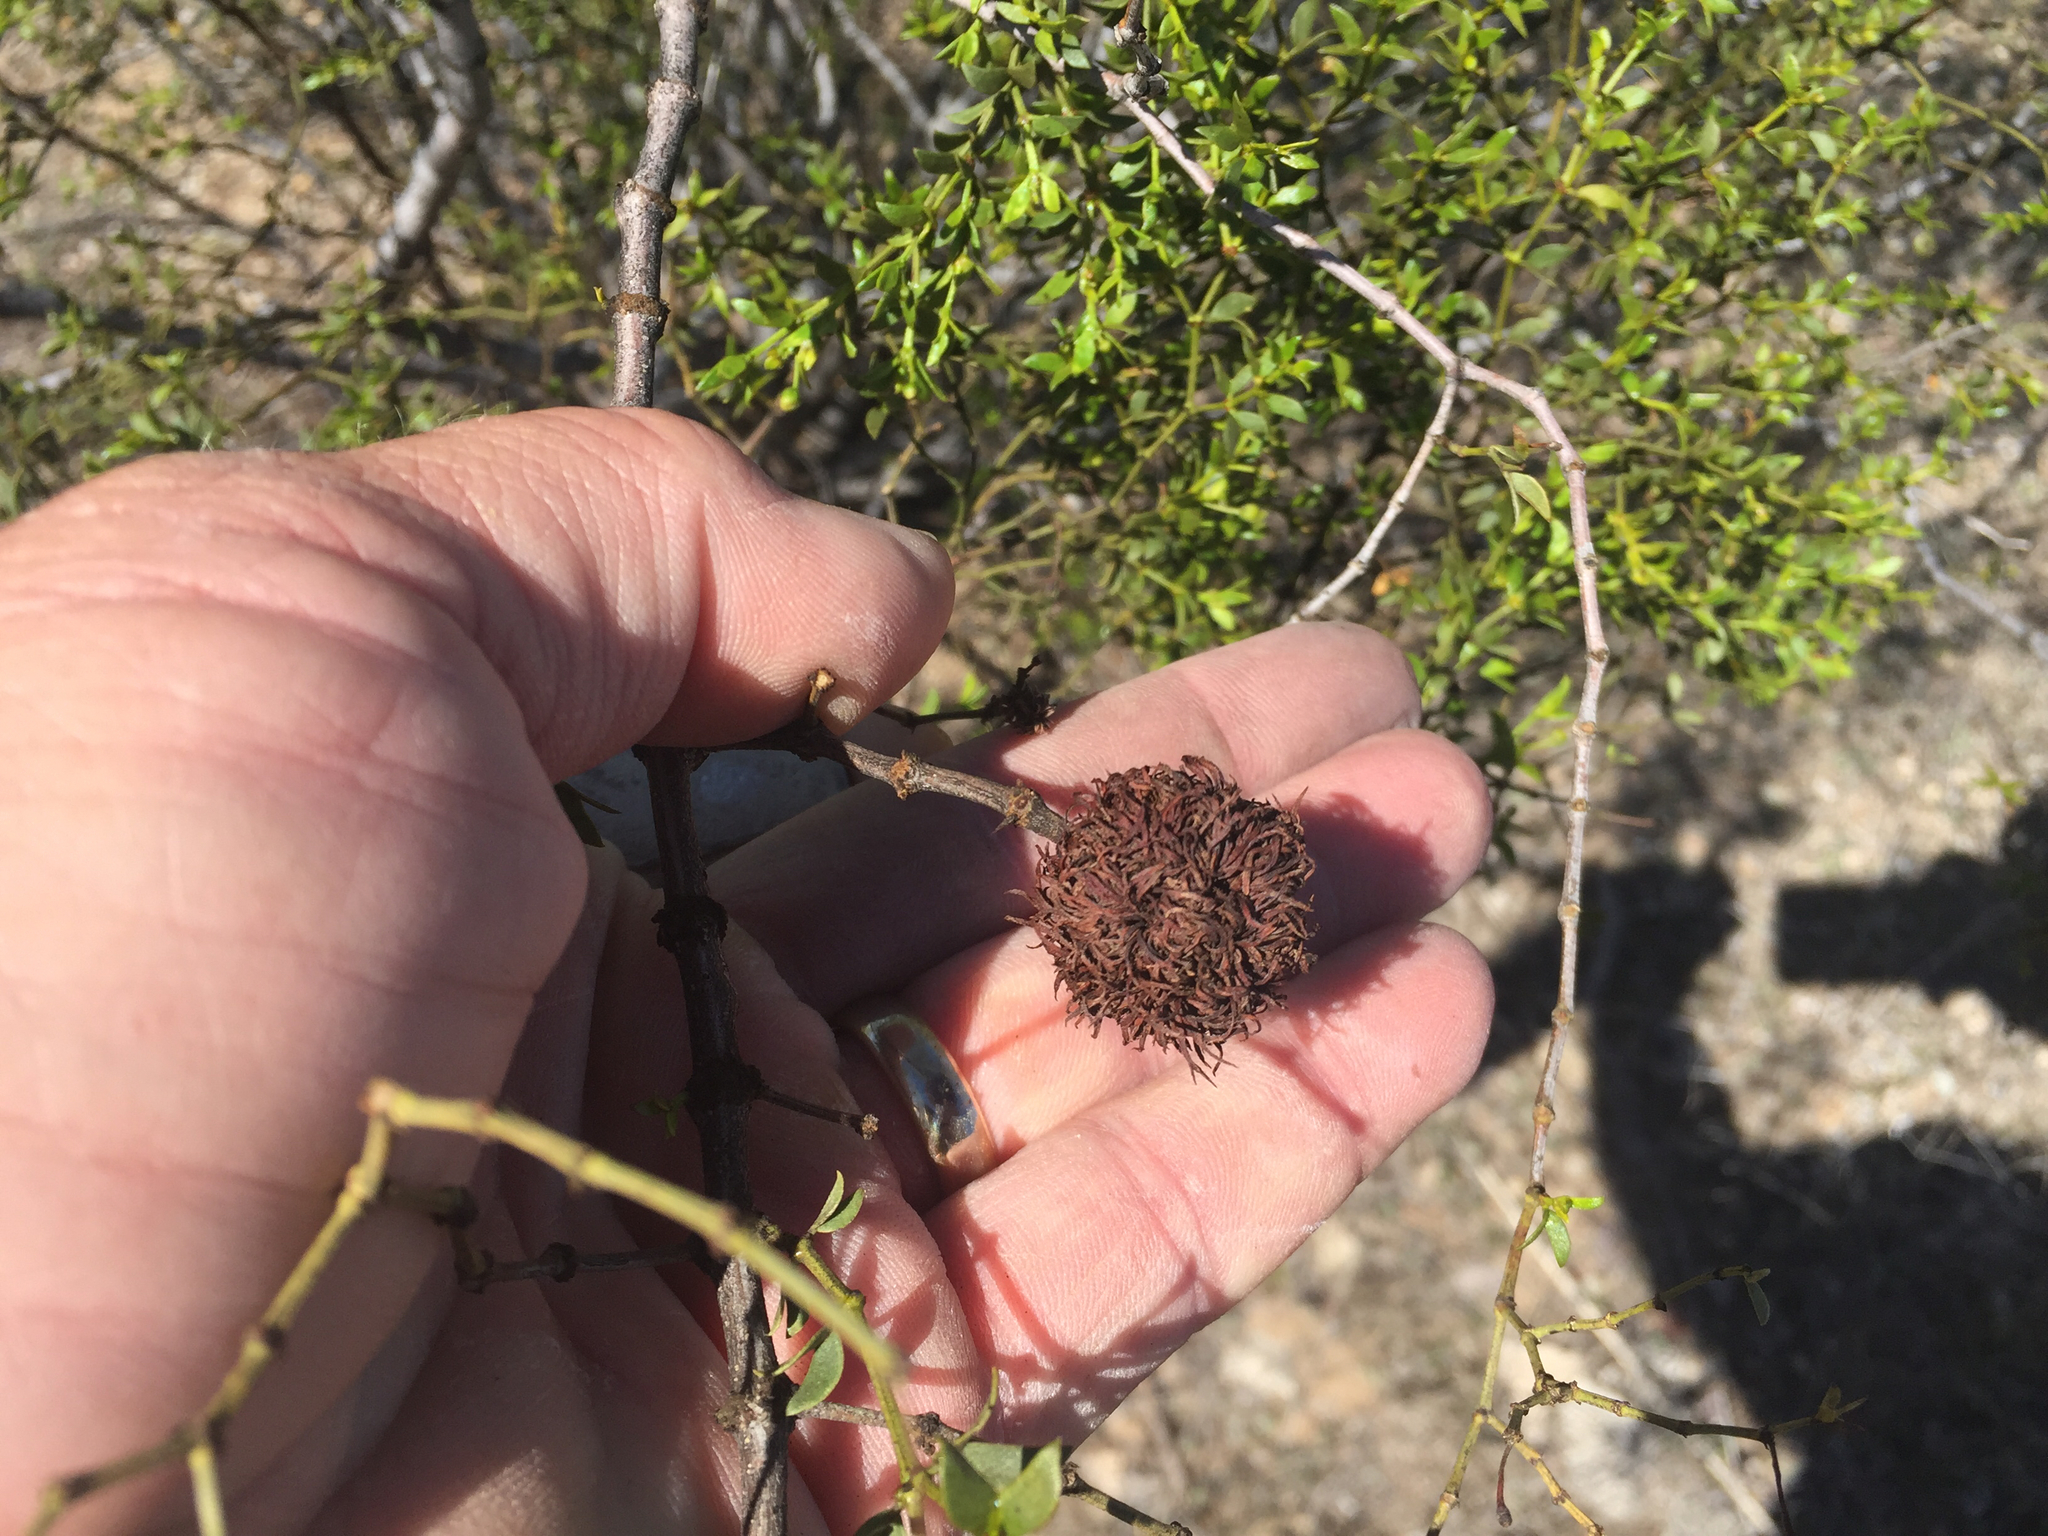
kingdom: Animalia
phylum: Arthropoda
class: Insecta
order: Diptera
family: Cecidomyiidae
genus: Asphondylia
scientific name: Asphondylia auripila
